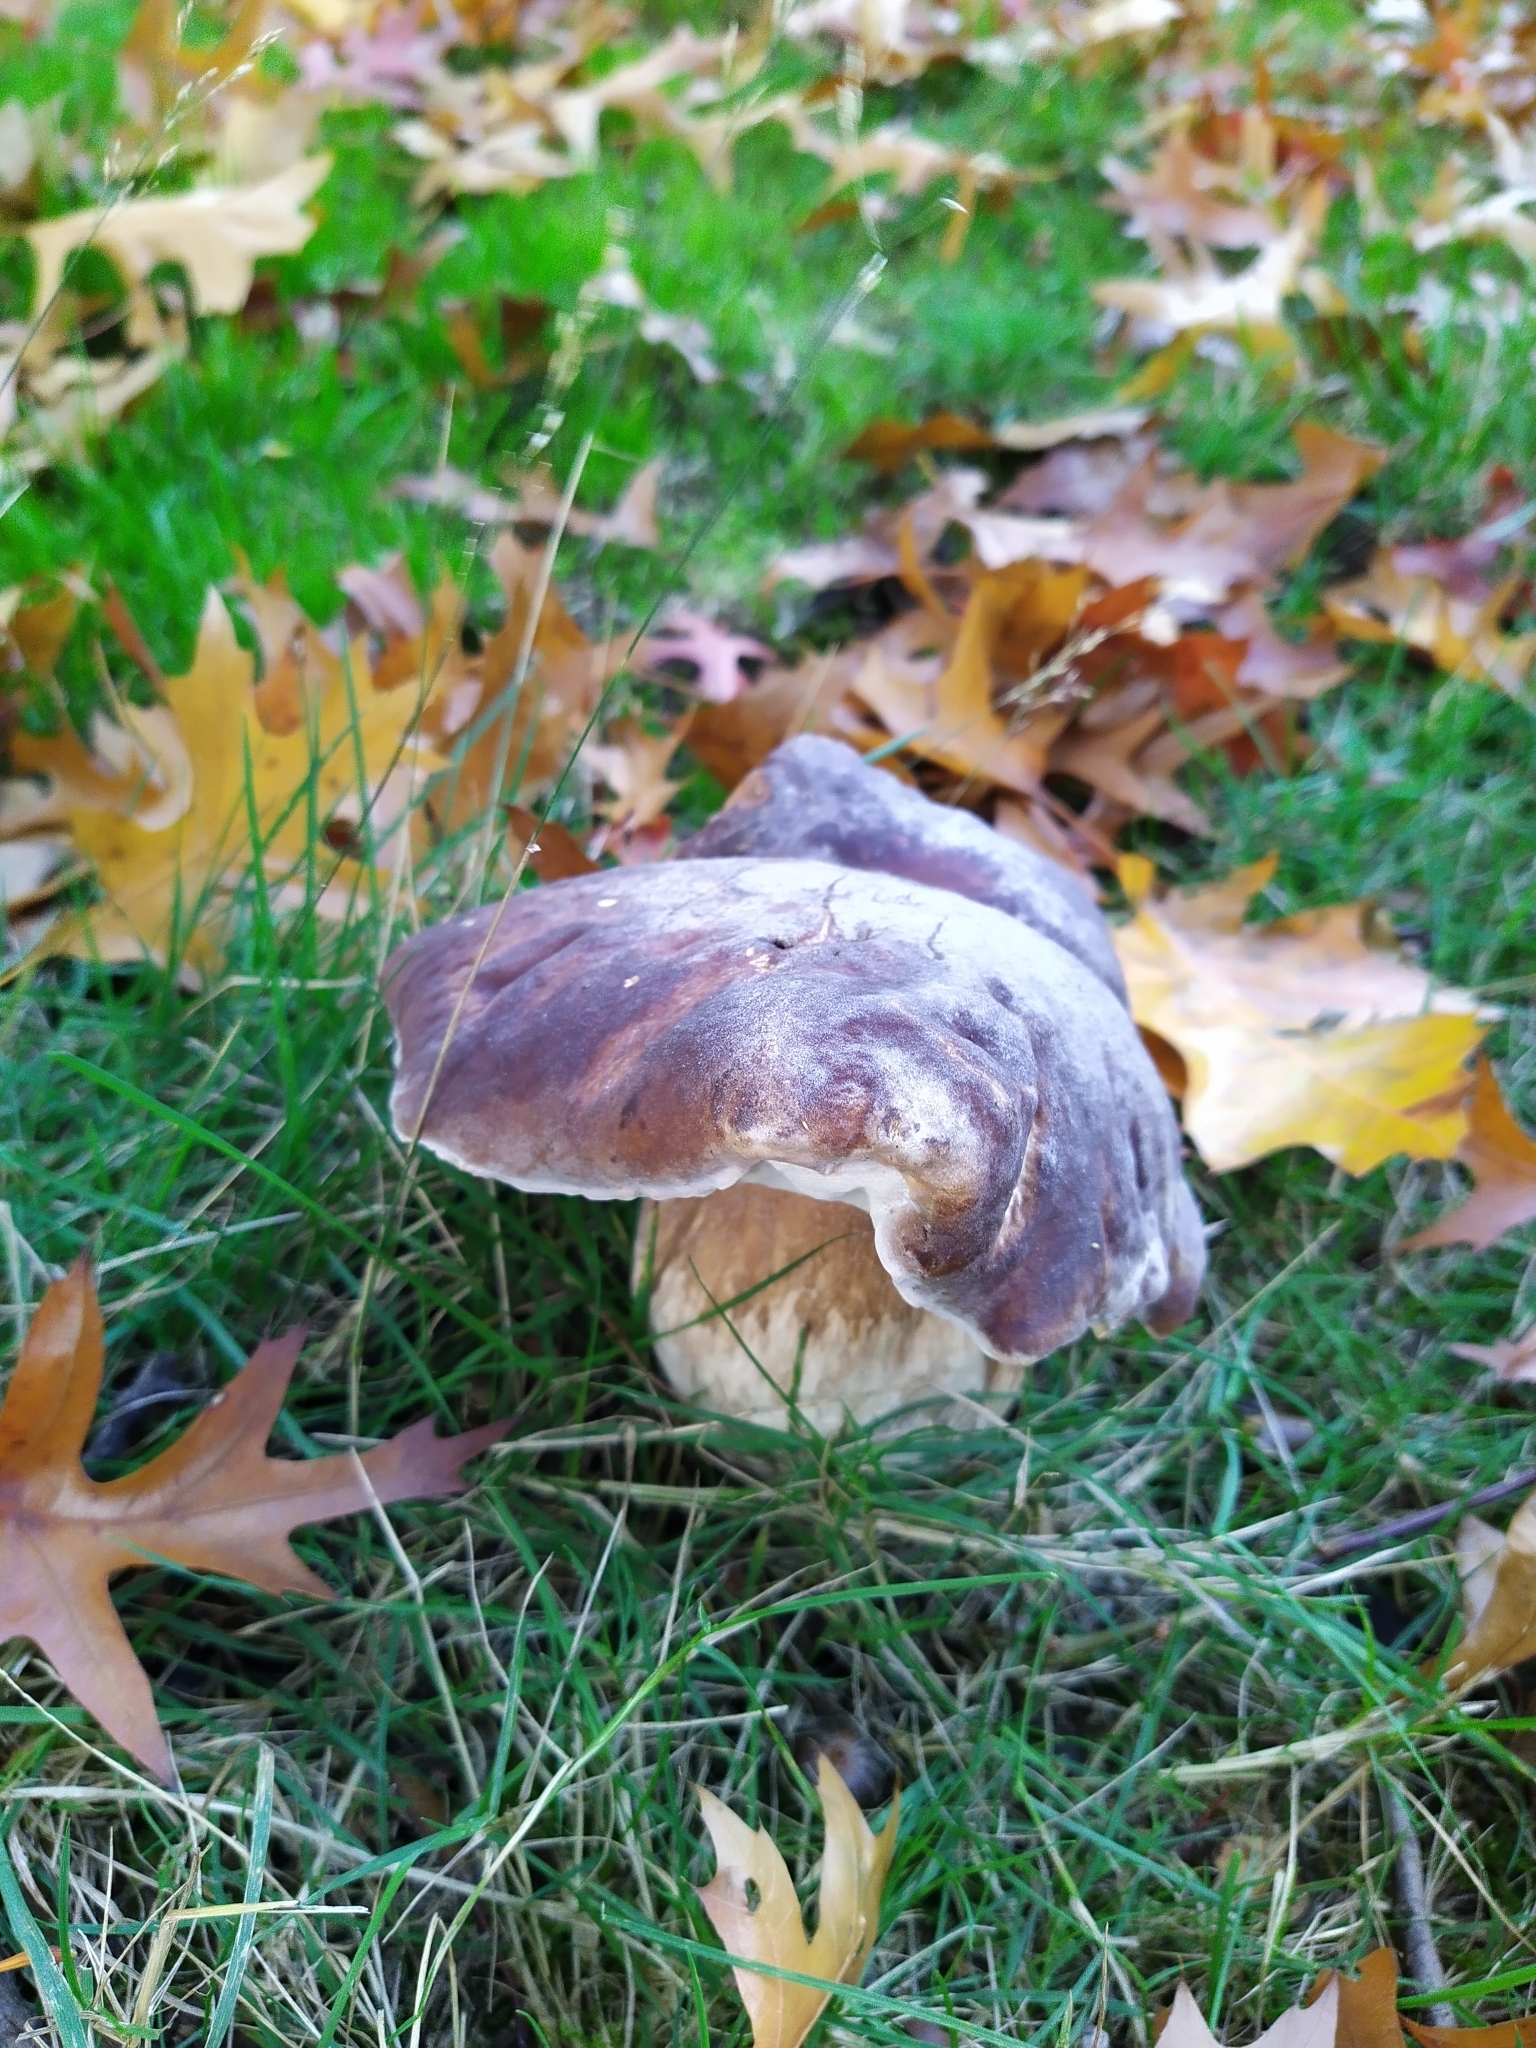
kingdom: Fungi
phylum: Basidiomycota
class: Agaricomycetes
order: Boletales
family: Boletaceae
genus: Boletus
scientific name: Boletus edulis
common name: Cep
